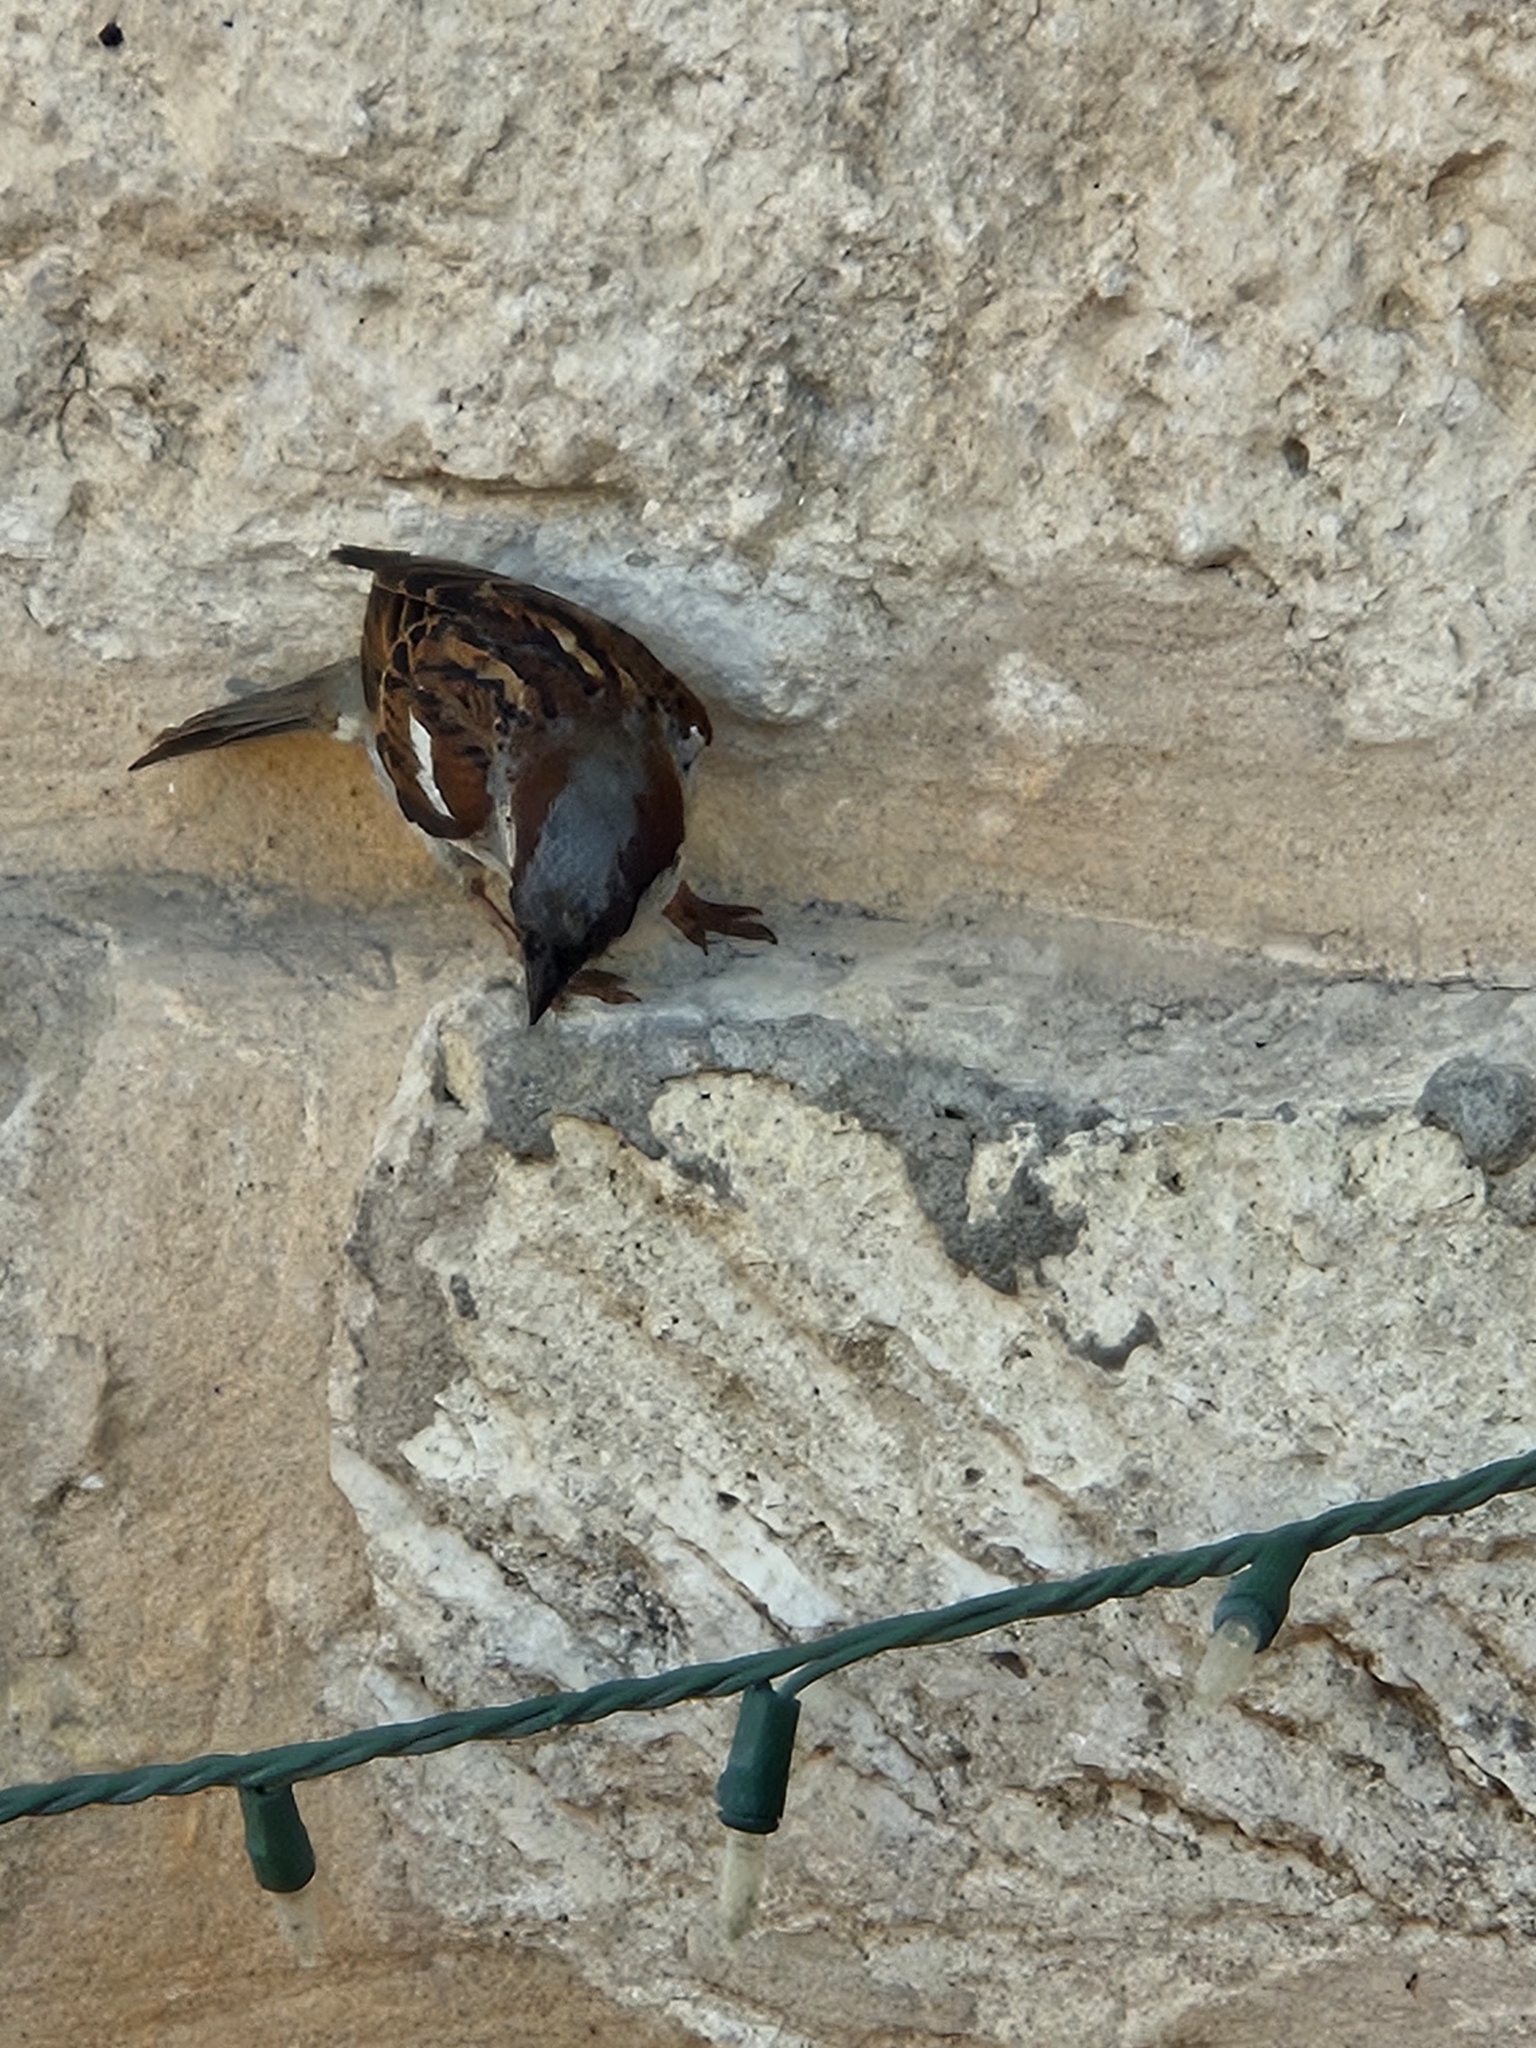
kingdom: Animalia
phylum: Chordata
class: Aves
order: Passeriformes
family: Passeridae
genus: Passer
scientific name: Passer domesticus
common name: House sparrow
